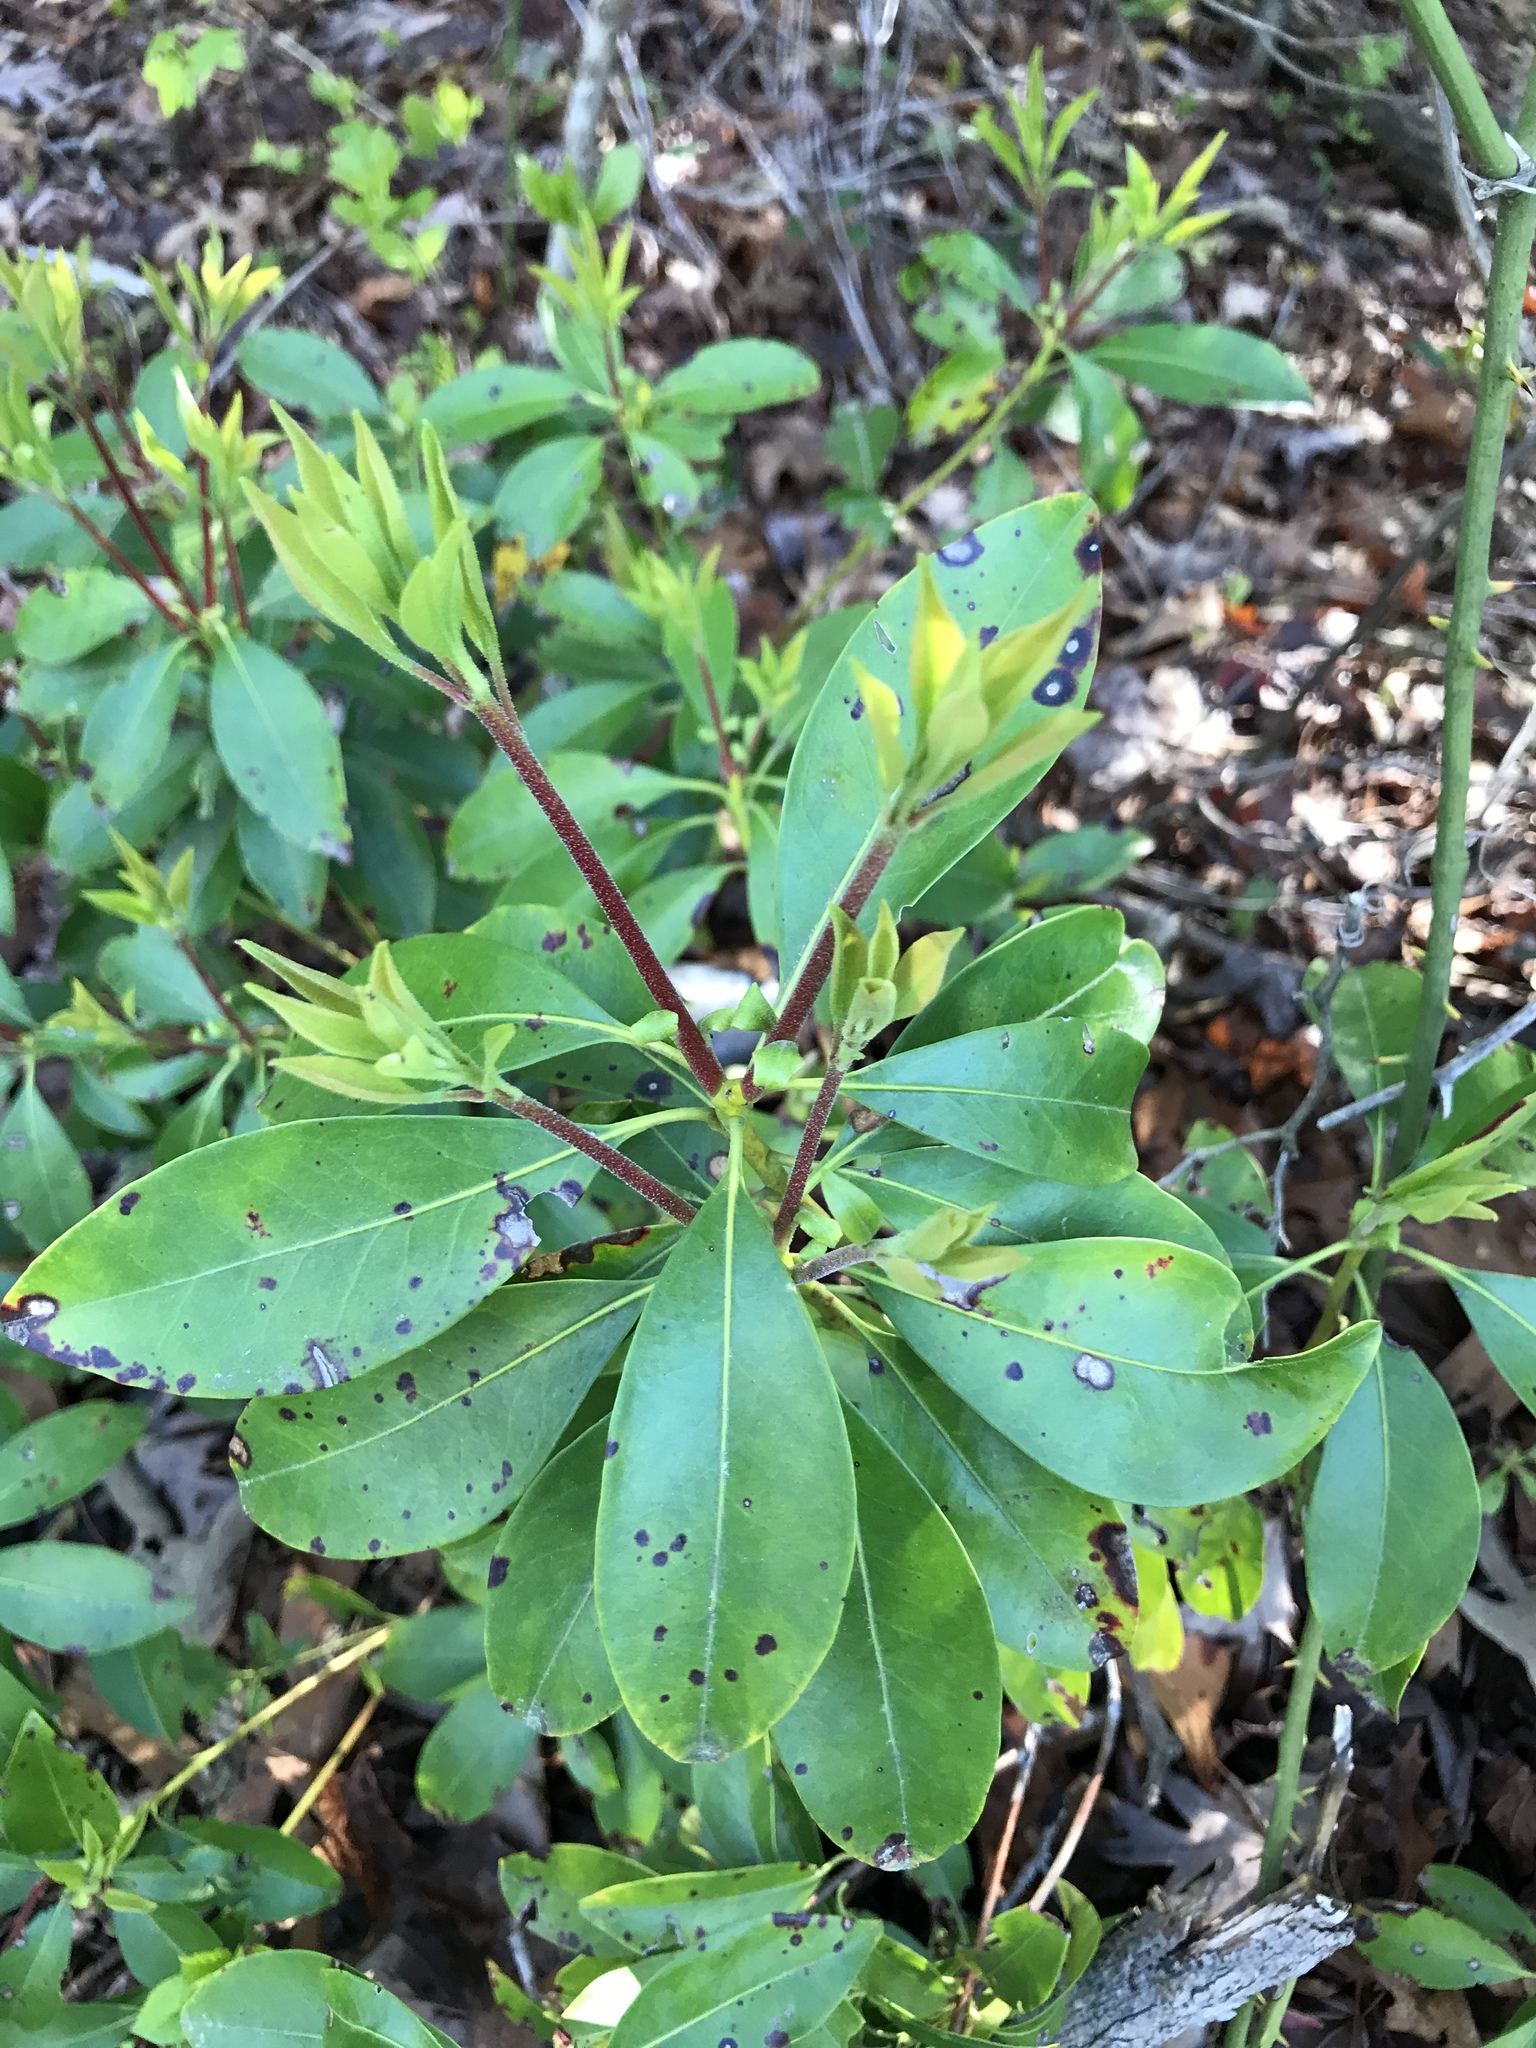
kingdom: Plantae
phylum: Tracheophyta
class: Magnoliopsida
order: Ericales
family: Ericaceae
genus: Kalmia
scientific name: Kalmia latifolia
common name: Mountain-laurel
